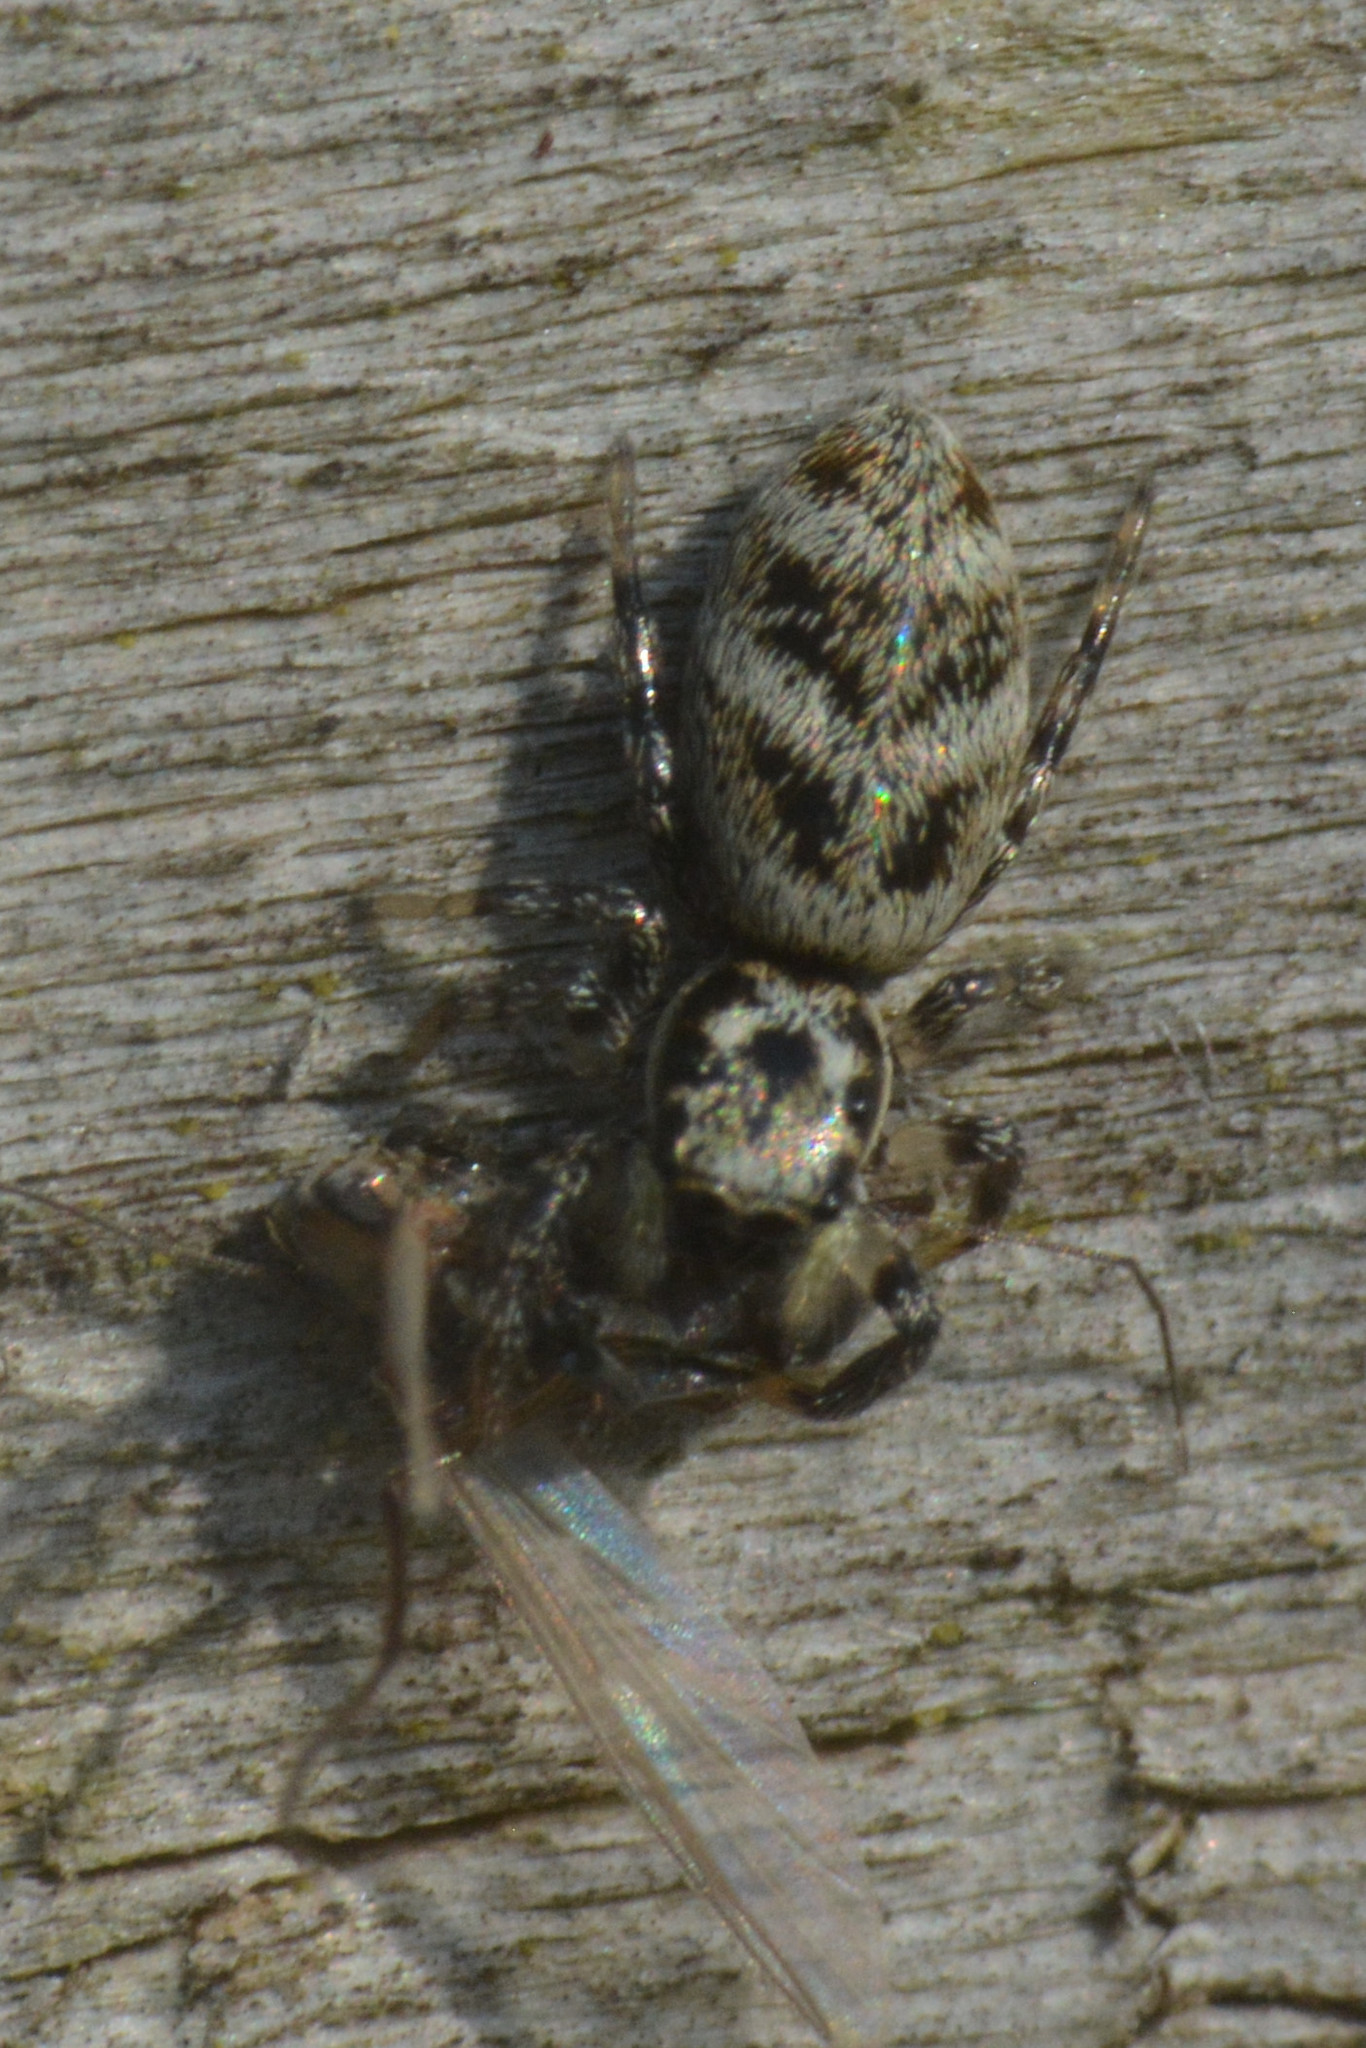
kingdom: Animalia
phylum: Arthropoda
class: Arachnida
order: Araneae
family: Salticidae
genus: Salticus
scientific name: Salticus scenicus
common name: Zebra jumper
